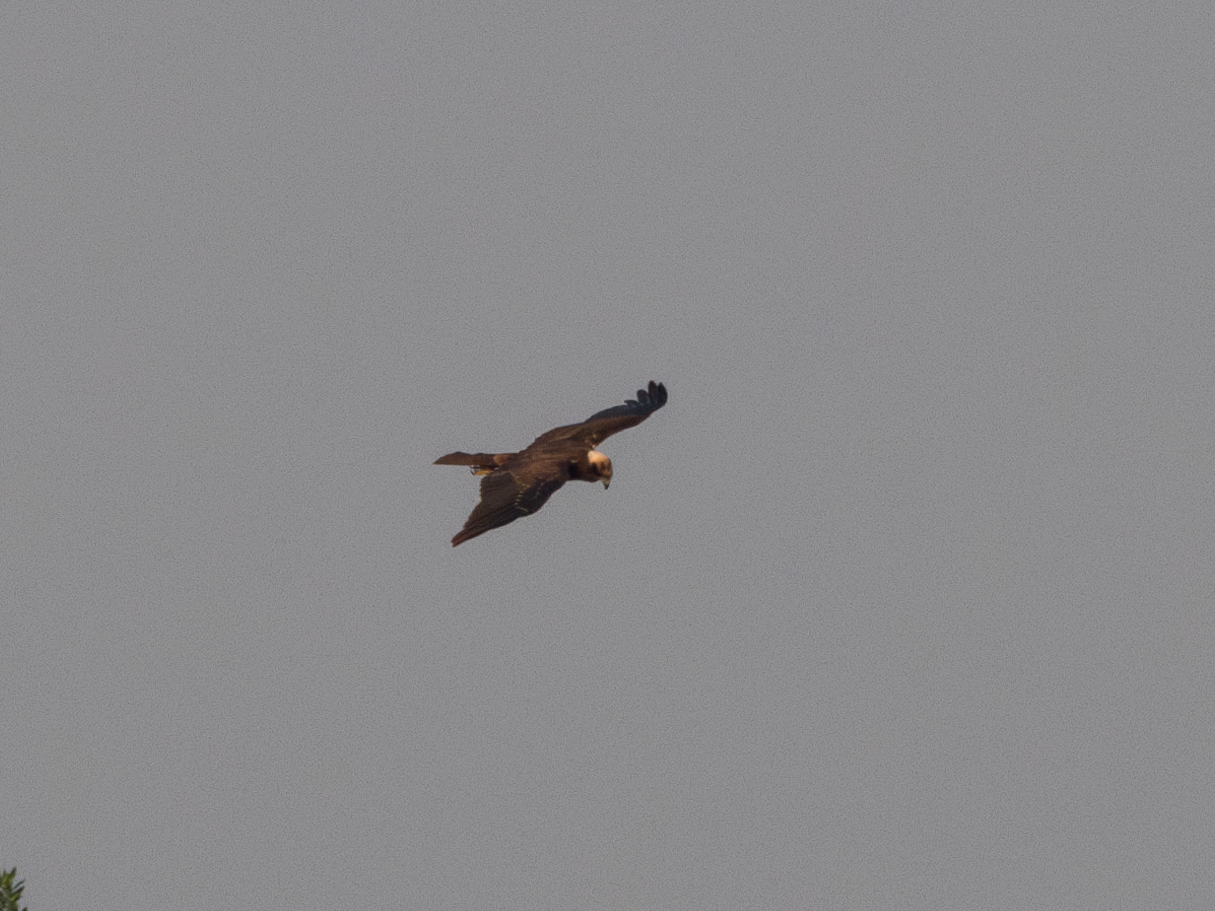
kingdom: Animalia
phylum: Chordata
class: Aves
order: Accipitriformes
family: Accipitridae
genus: Circus
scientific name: Circus aeruginosus
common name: Western marsh harrier
